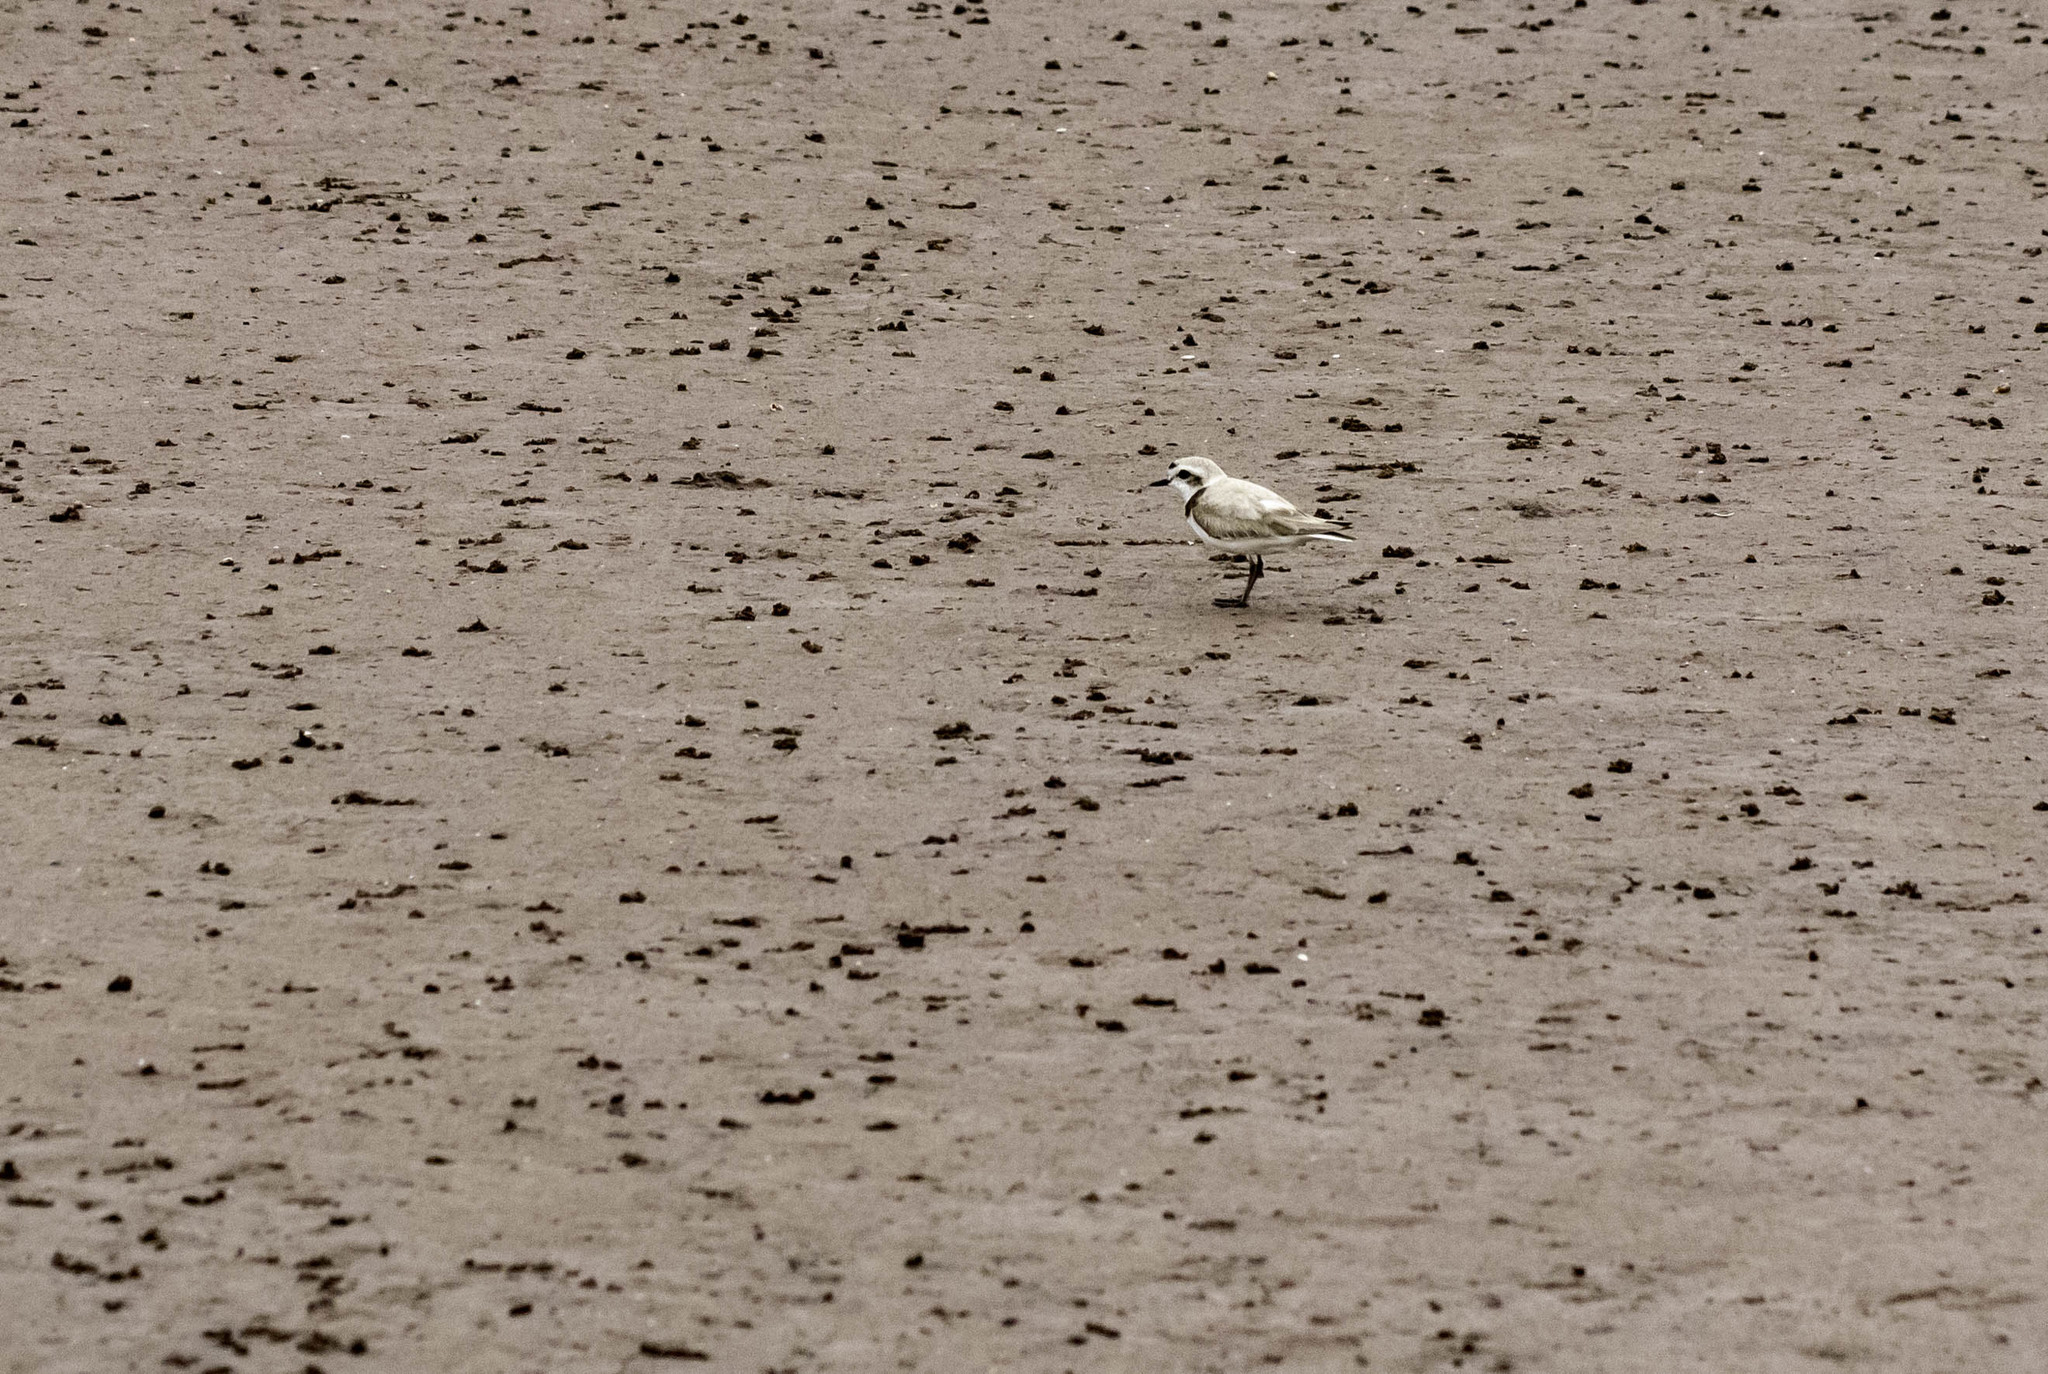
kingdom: Animalia
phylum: Chordata
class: Aves
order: Charadriiformes
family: Charadriidae
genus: Anarhynchus
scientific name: Anarhynchus
